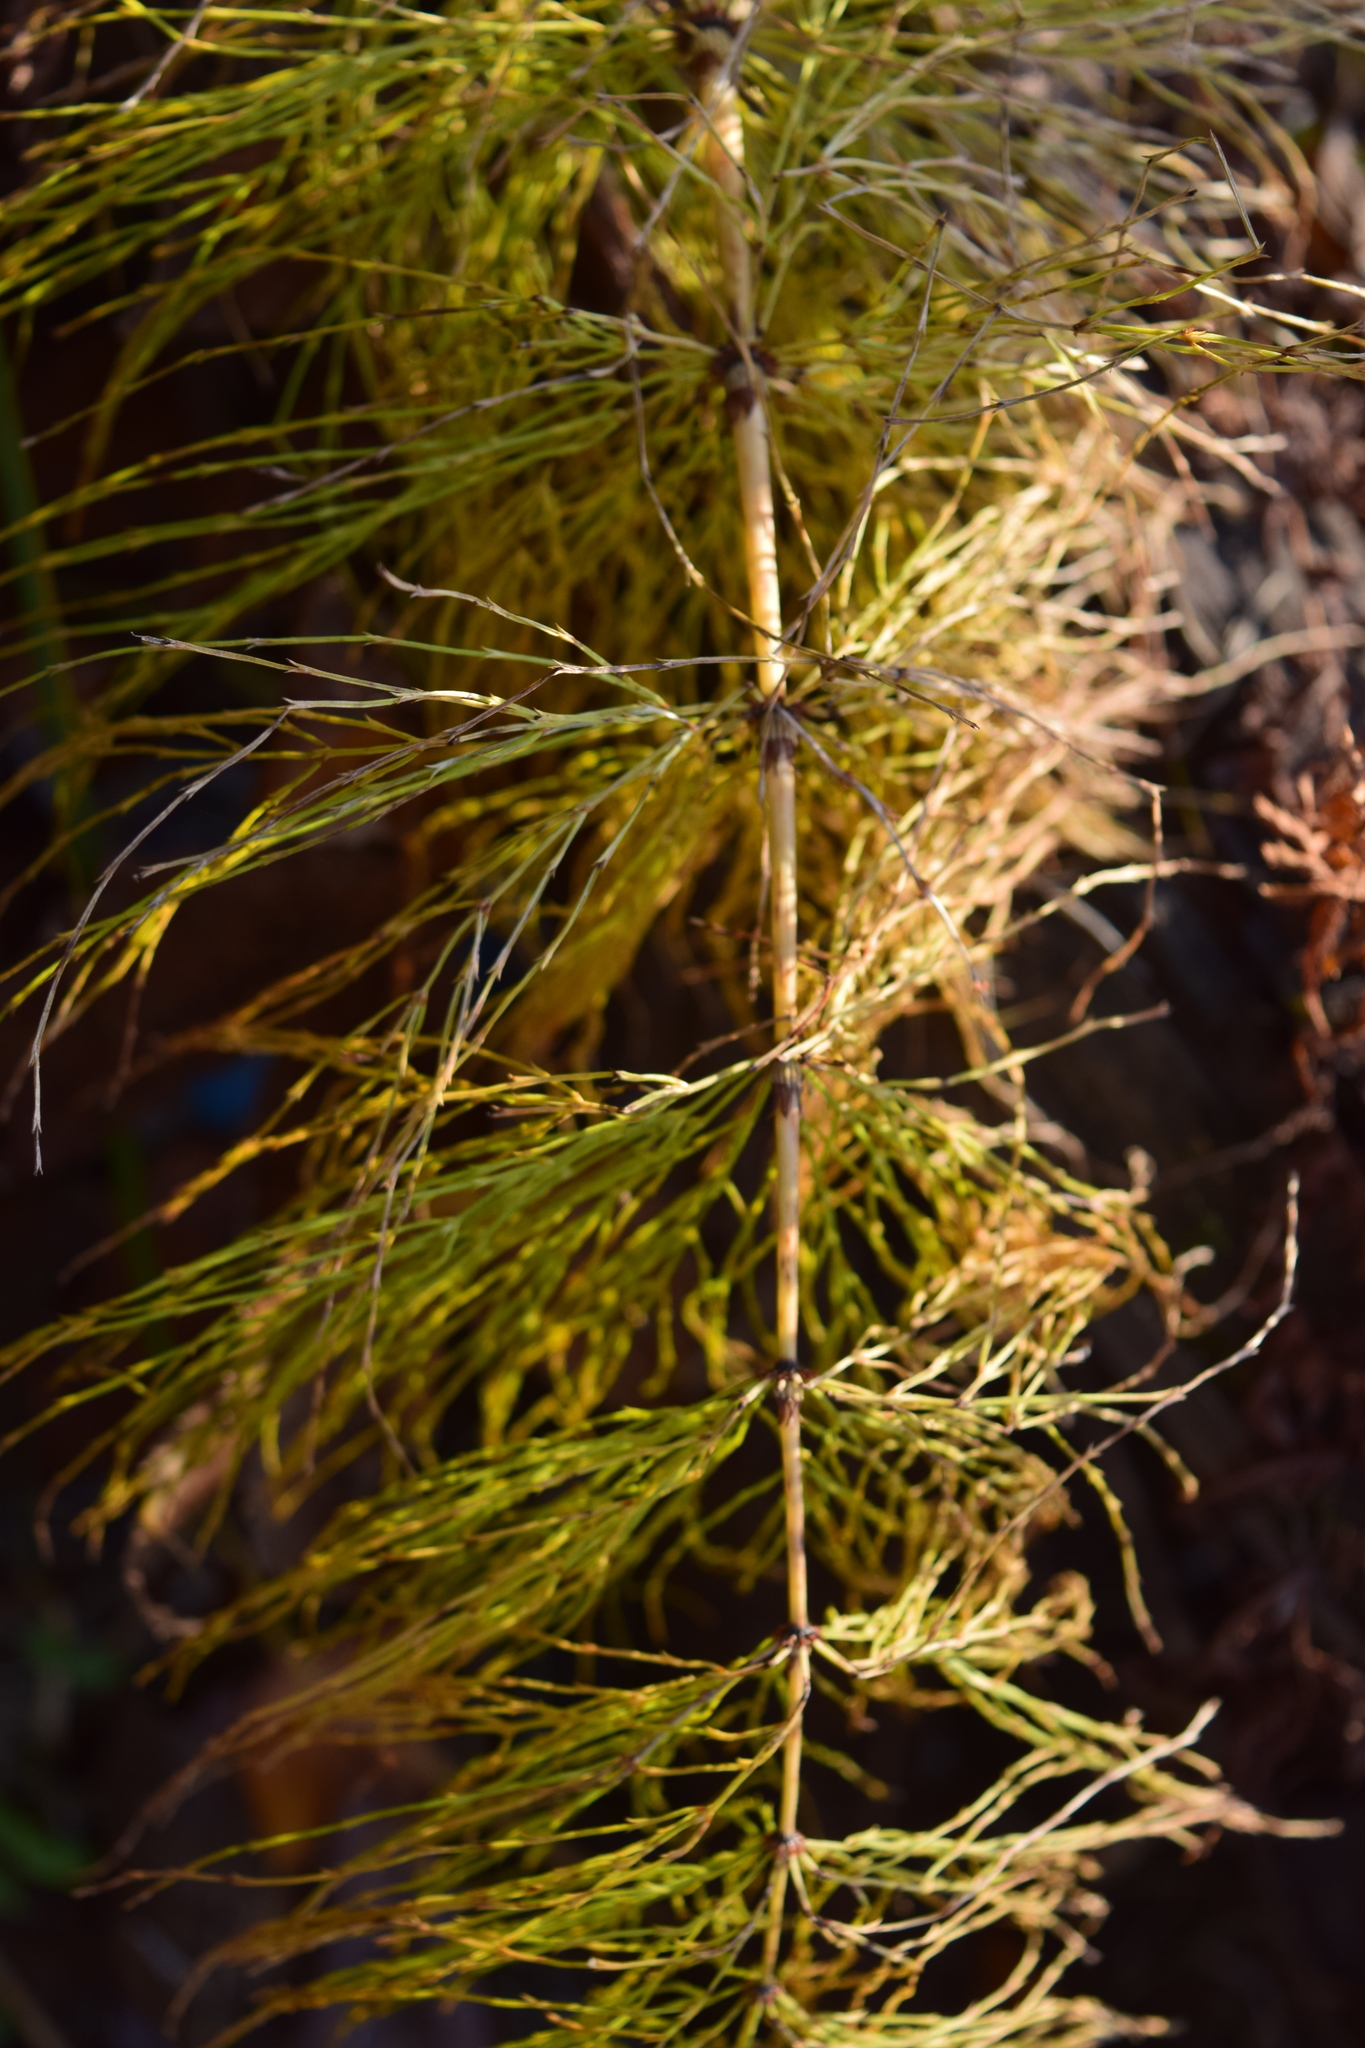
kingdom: Plantae
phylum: Tracheophyta
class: Polypodiopsida
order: Equisetales
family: Equisetaceae
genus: Equisetum
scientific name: Equisetum sylvaticum
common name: Wood horsetail
